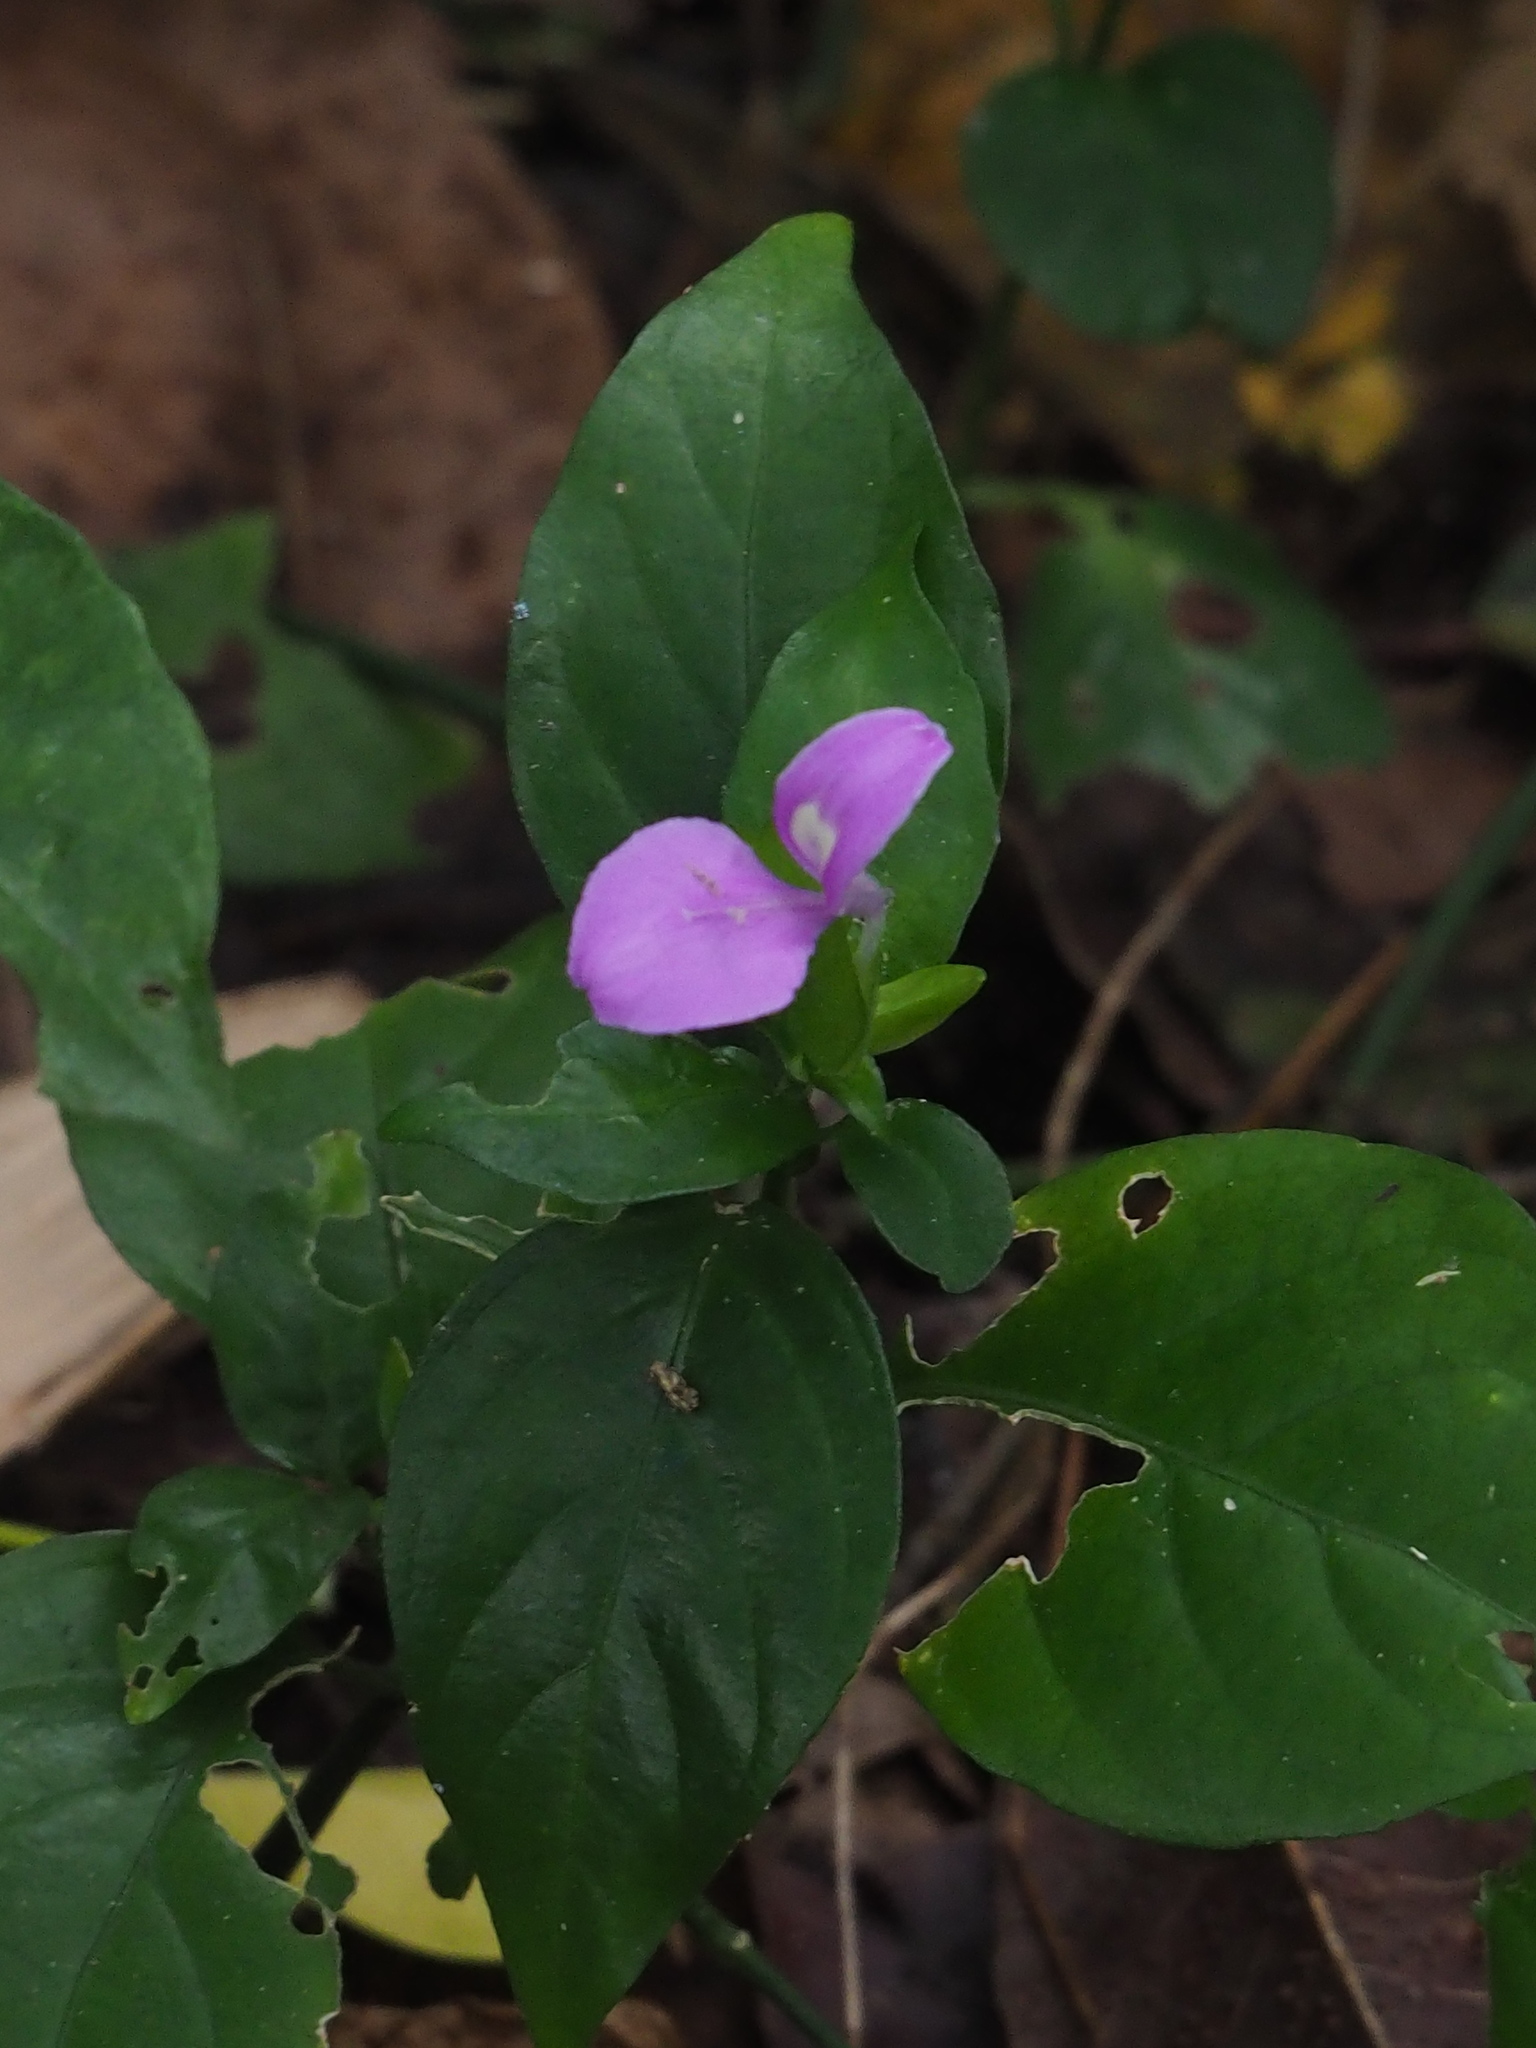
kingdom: Plantae
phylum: Tracheophyta
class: Magnoliopsida
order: Lamiales
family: Acanthaceae
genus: Dicliptera
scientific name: Dicliptera tinctoria
